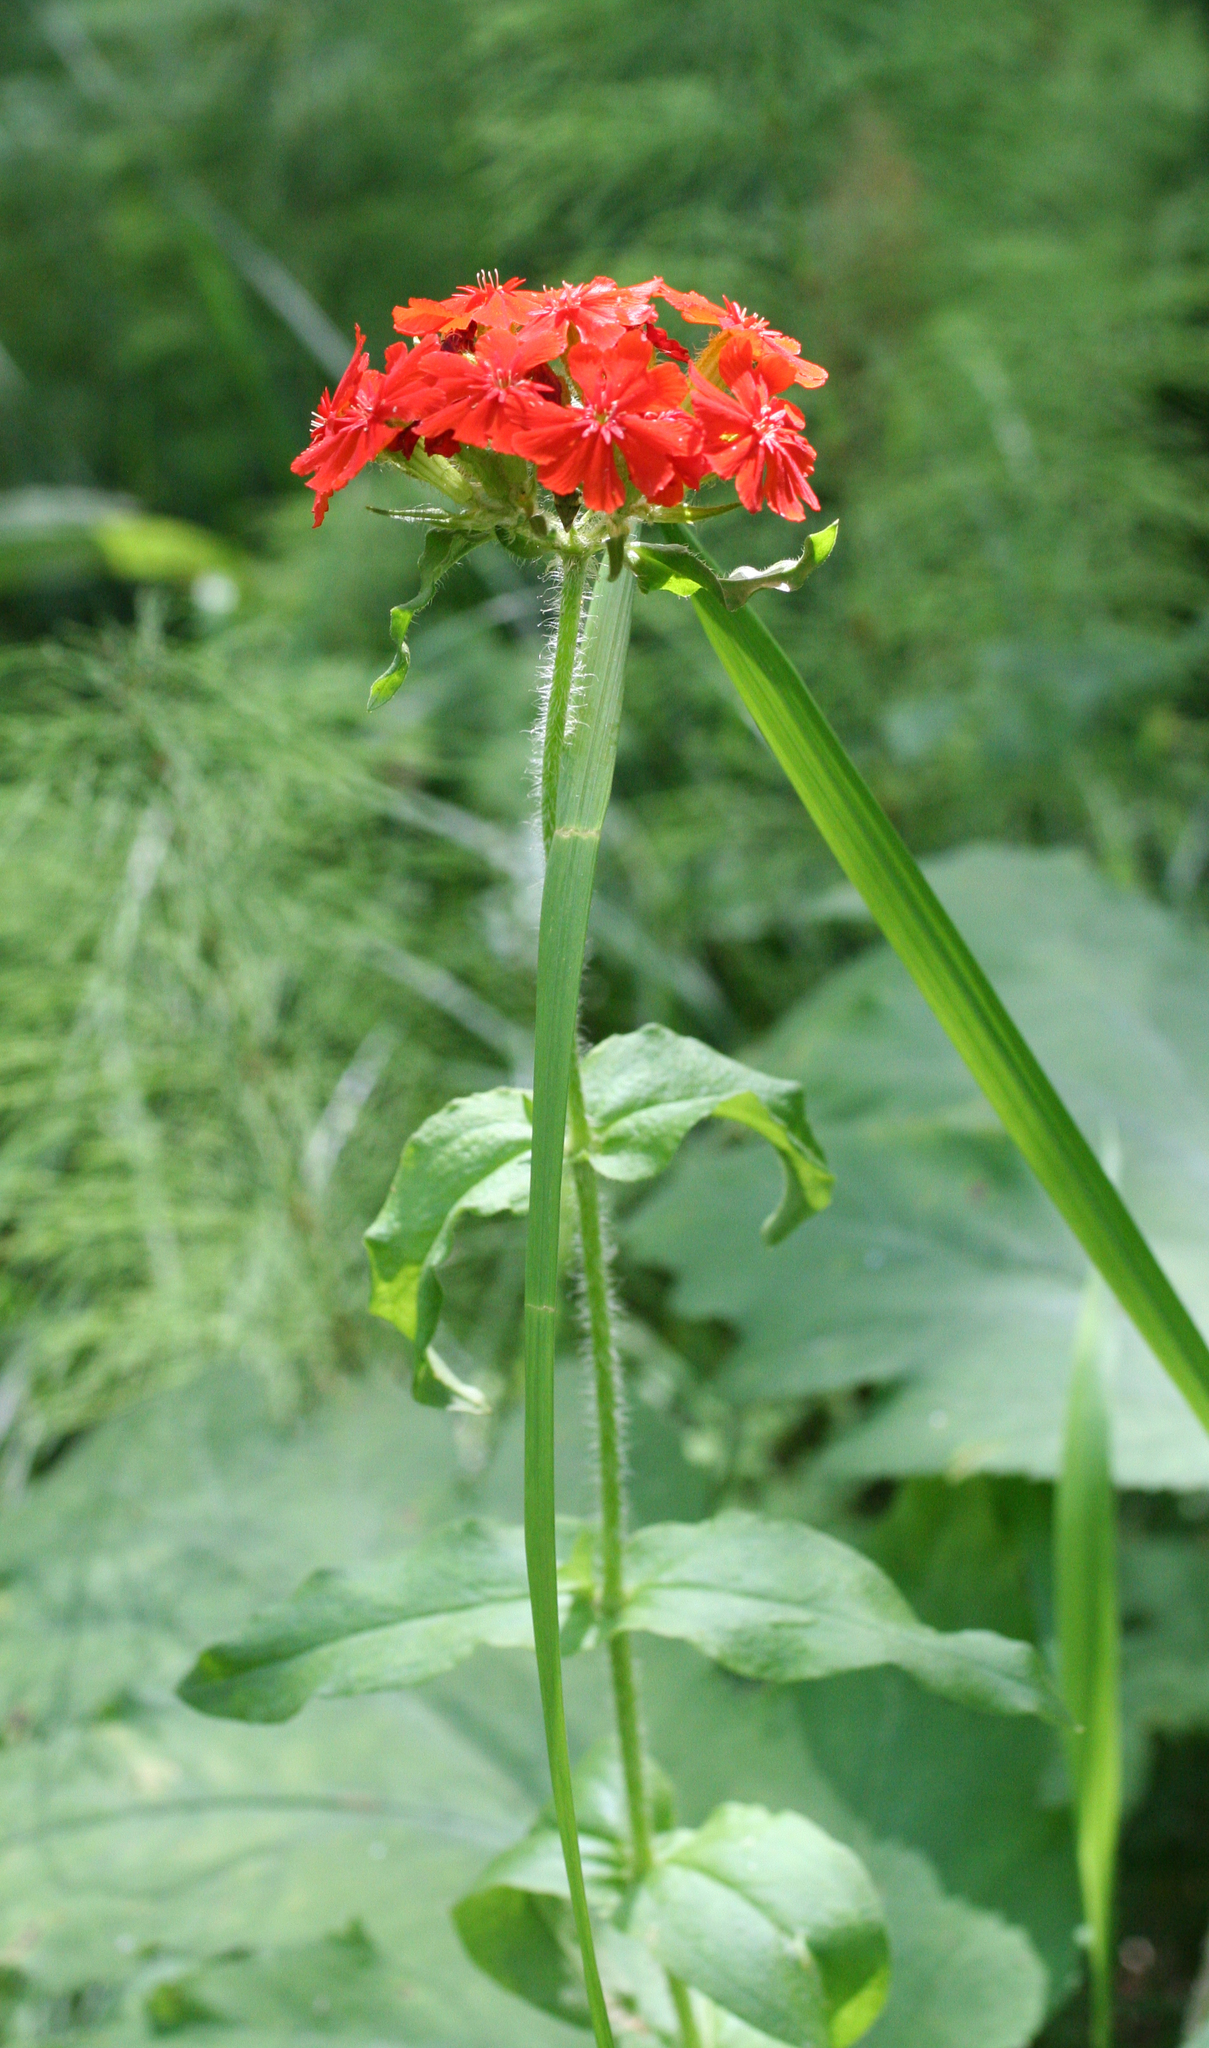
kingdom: Plantae
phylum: Tracheophyta
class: Magnoliopsida
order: Caryophyllales
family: Caryophyllaceae
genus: Silene
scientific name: Silene chalcedonica
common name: Maltese-cross
